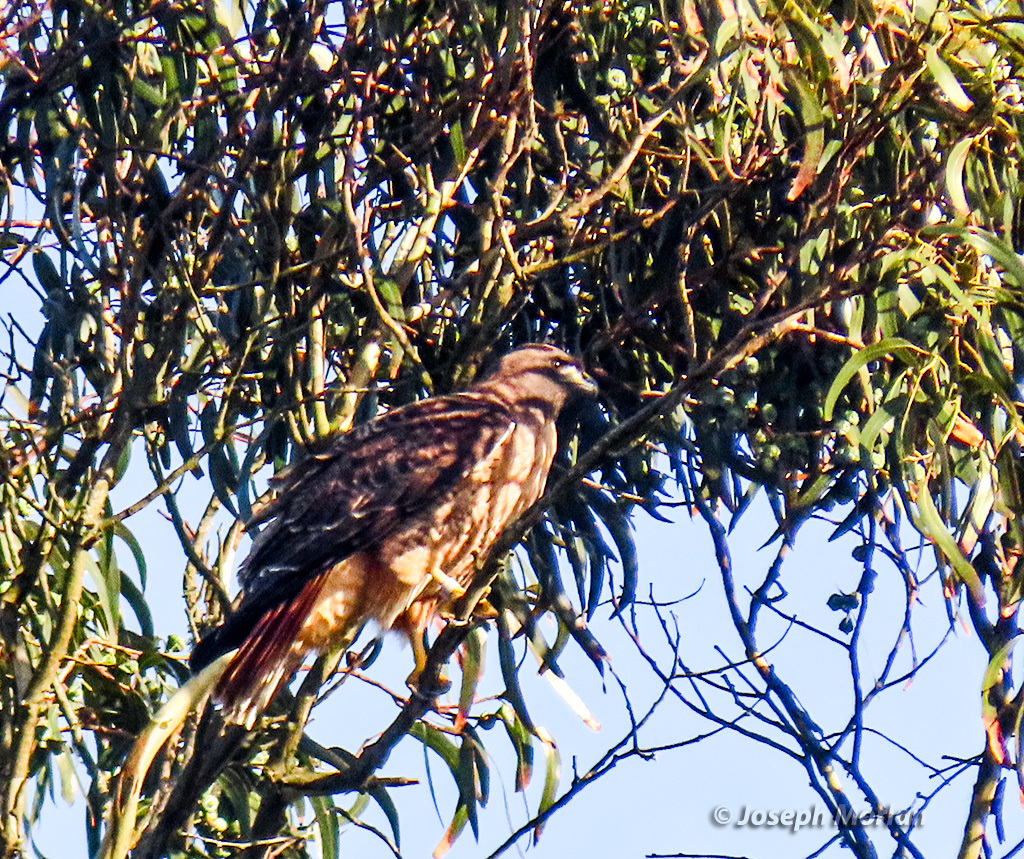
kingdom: Animalia
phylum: Chordata
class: Aves
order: Accipitriformes
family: Accipitridae
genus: Buteo
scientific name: Buteo jamaicensis
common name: Red-tailed hawk
